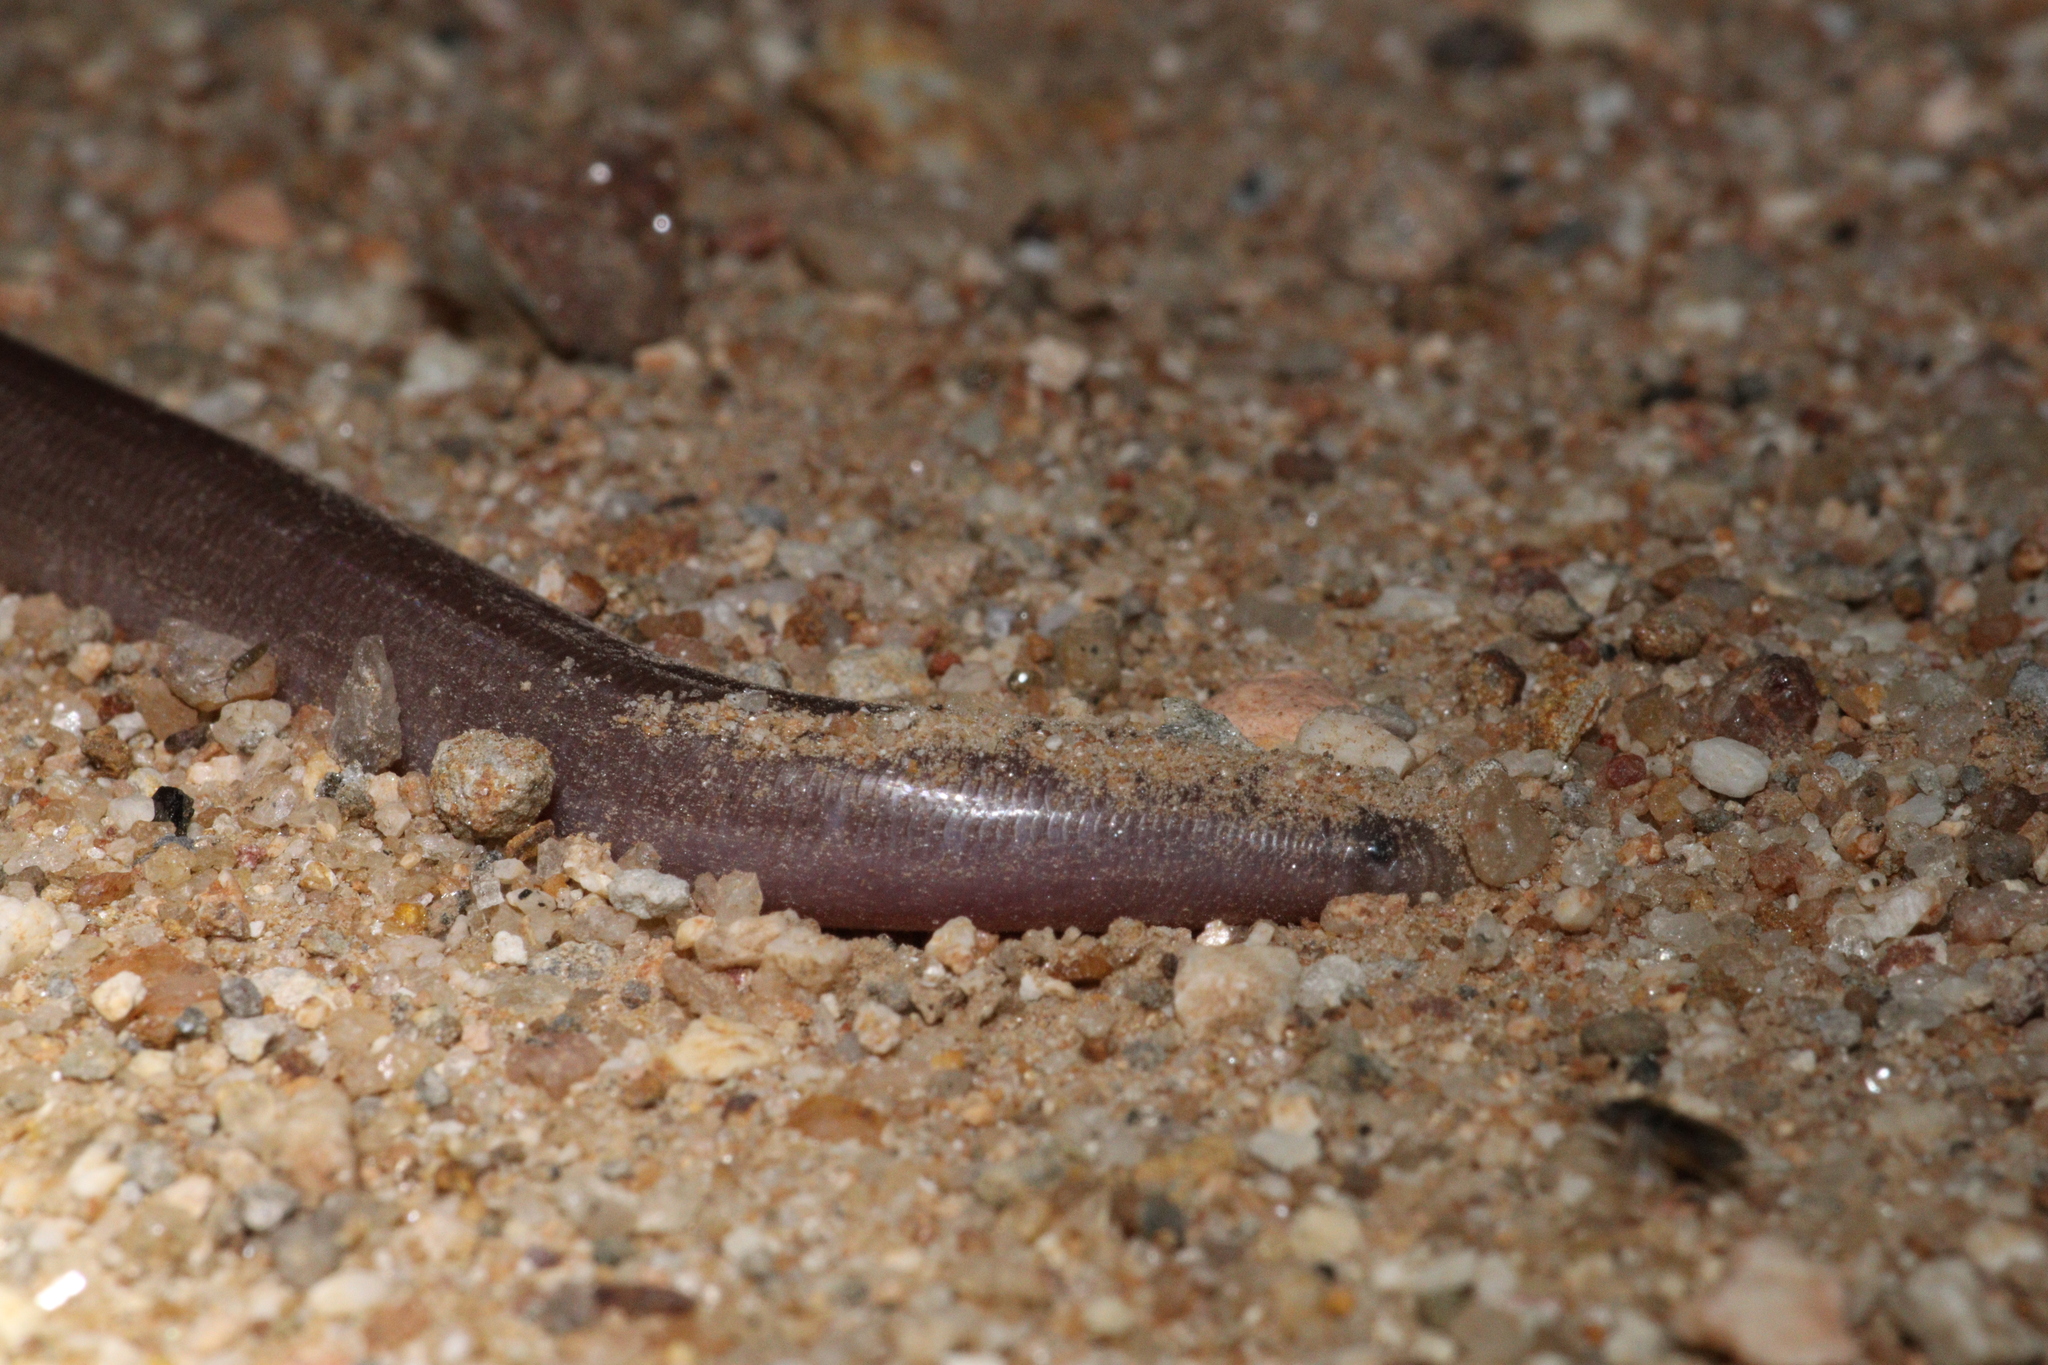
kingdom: Animalia
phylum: Chordata
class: Squamata
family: Typhlopidae
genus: Anilios
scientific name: Anilios bituberculatus
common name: Prong-snouted blind snake
